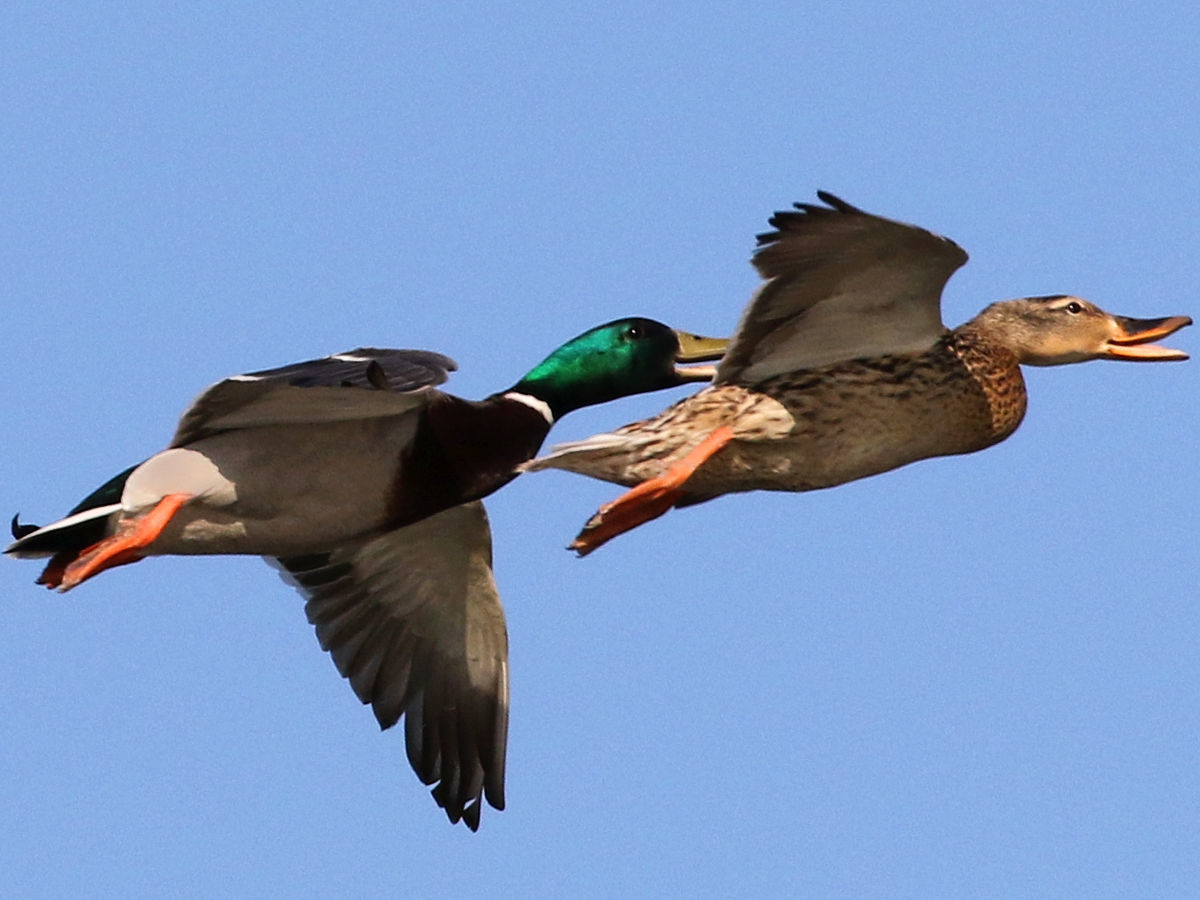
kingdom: Animalia
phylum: Chordata
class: Aves
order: Anseriformes
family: Anatidae
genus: Anas
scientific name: Anas platyrhynchos
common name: Mallard
